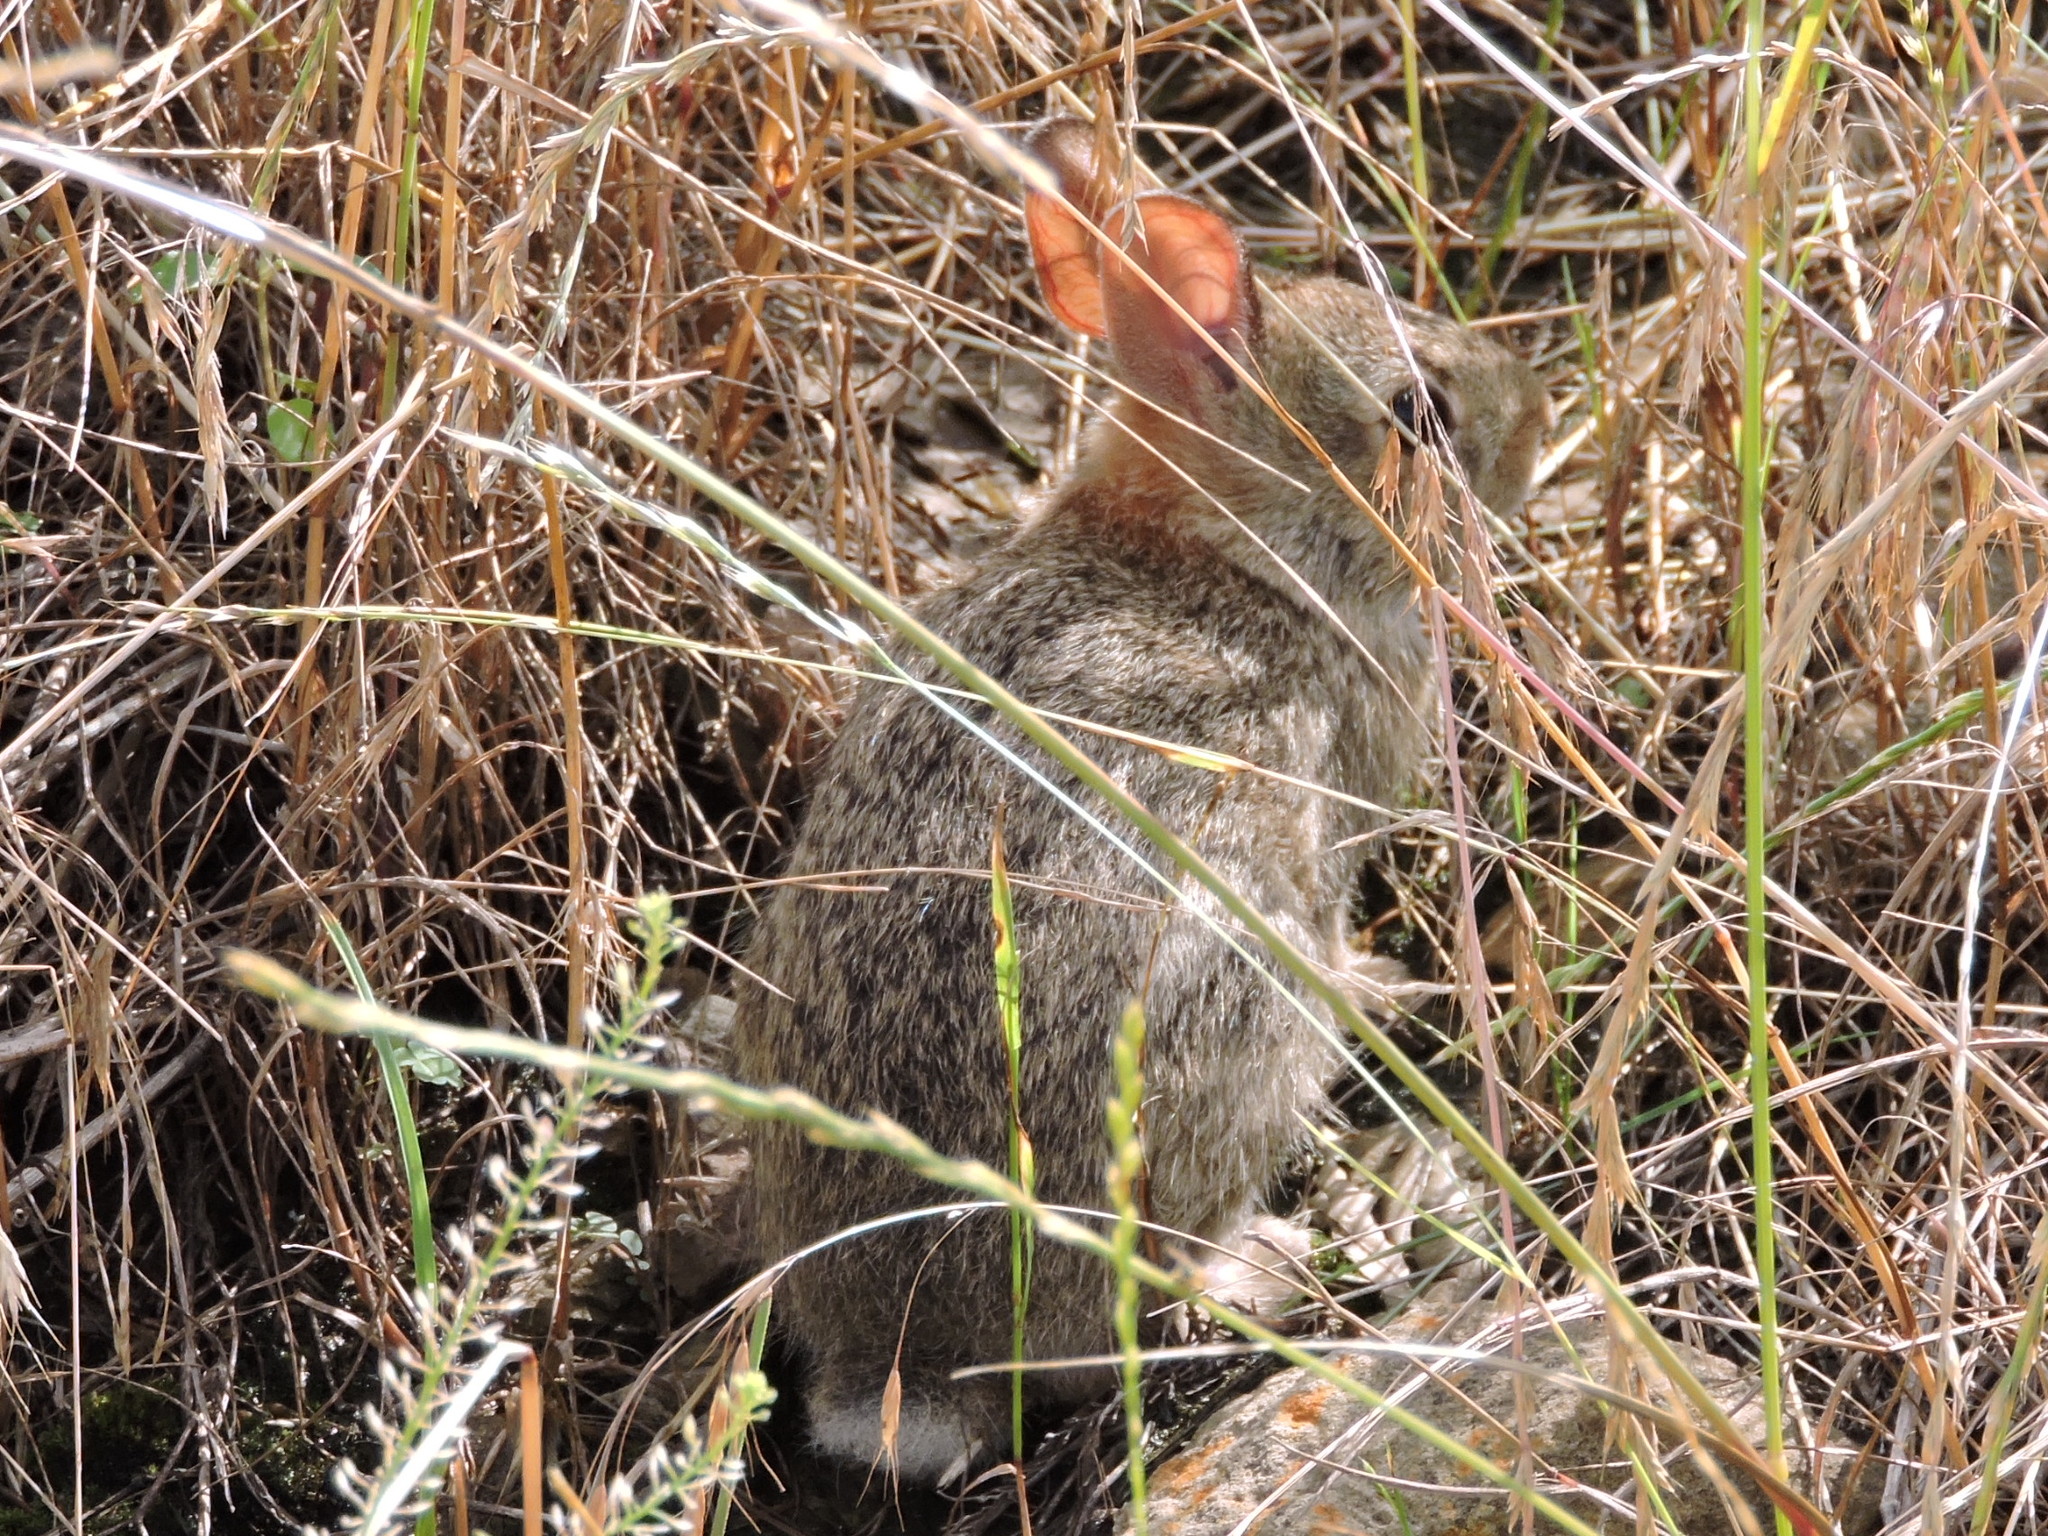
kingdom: Animalia
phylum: Chordata
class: Mammalia
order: Lagomorpha
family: Leporidae
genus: Sylvilagus
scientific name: Sylvilagus floridanus
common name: Eastern cottontail
